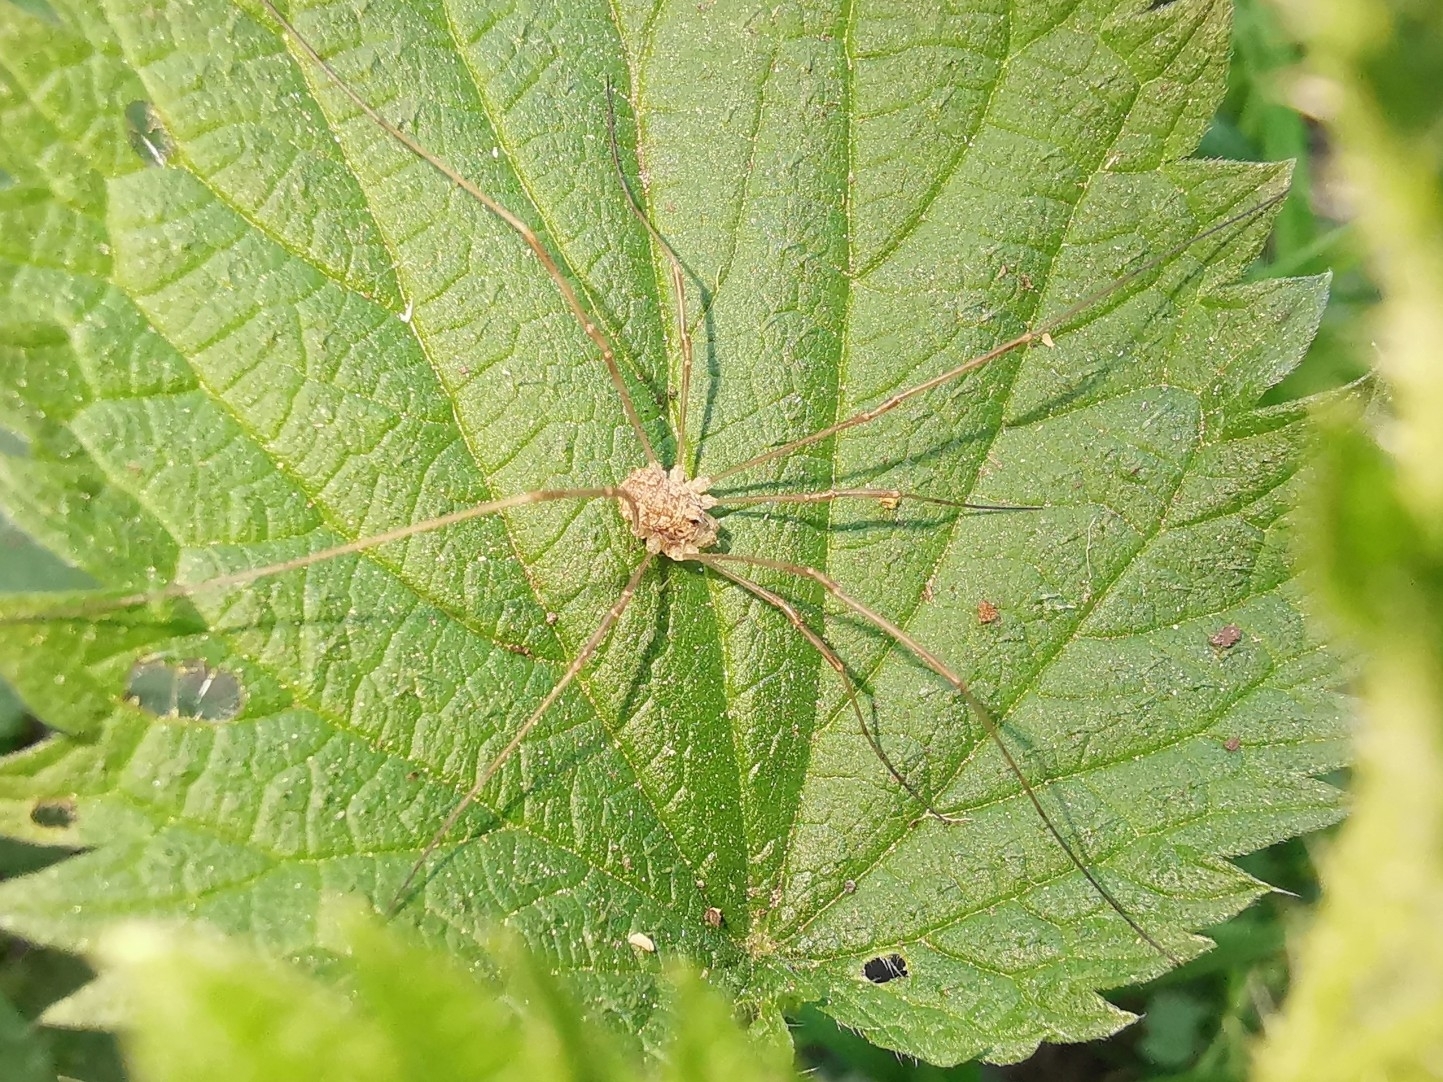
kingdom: Animalia
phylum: Arthropoda
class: Arachnida
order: Opiliones
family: Phalangiidae
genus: Rilaena
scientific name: Rilaena triangularis
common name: Spring harvestman
